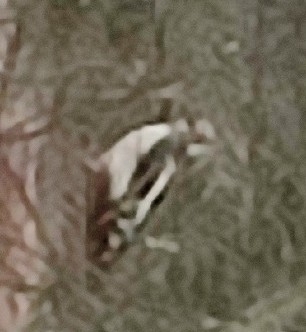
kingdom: Animalia
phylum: Chordata
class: Aves
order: Piciformes
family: Picidae
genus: Dendrocopos
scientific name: Dendrocopos major
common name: Great spotted woodpecker
